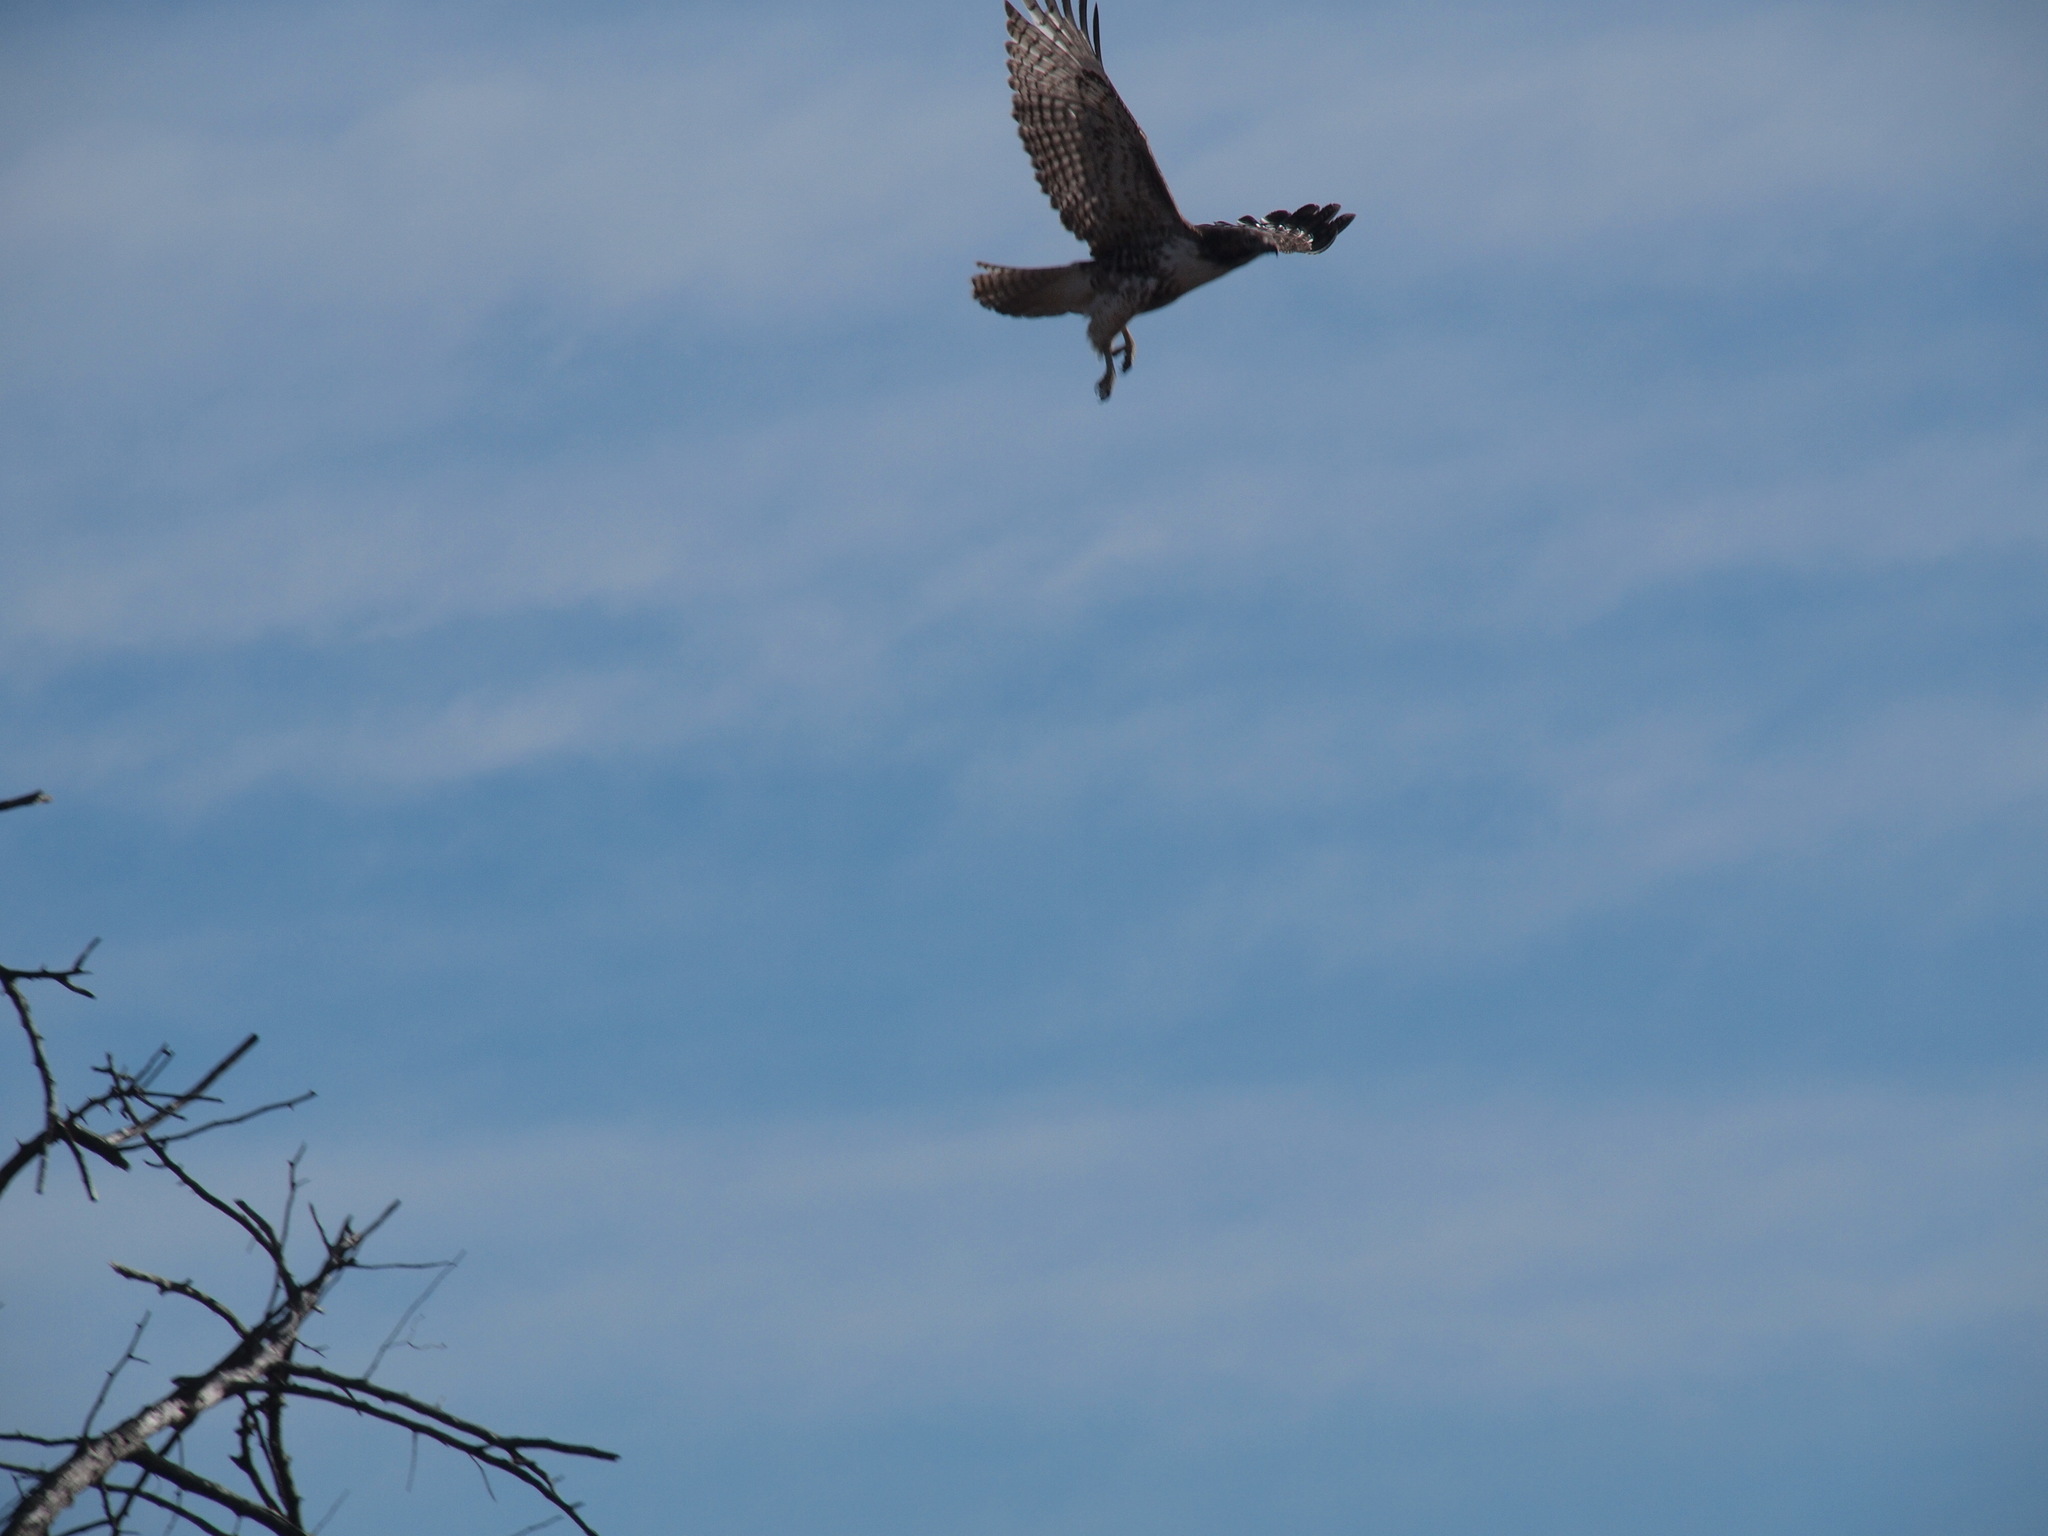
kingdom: Animalia
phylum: Chordata
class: Aves
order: Accipitriformes
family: Accipitridae
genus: Buteo
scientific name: Buteo jamaicensis
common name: Red-tailed hawk
